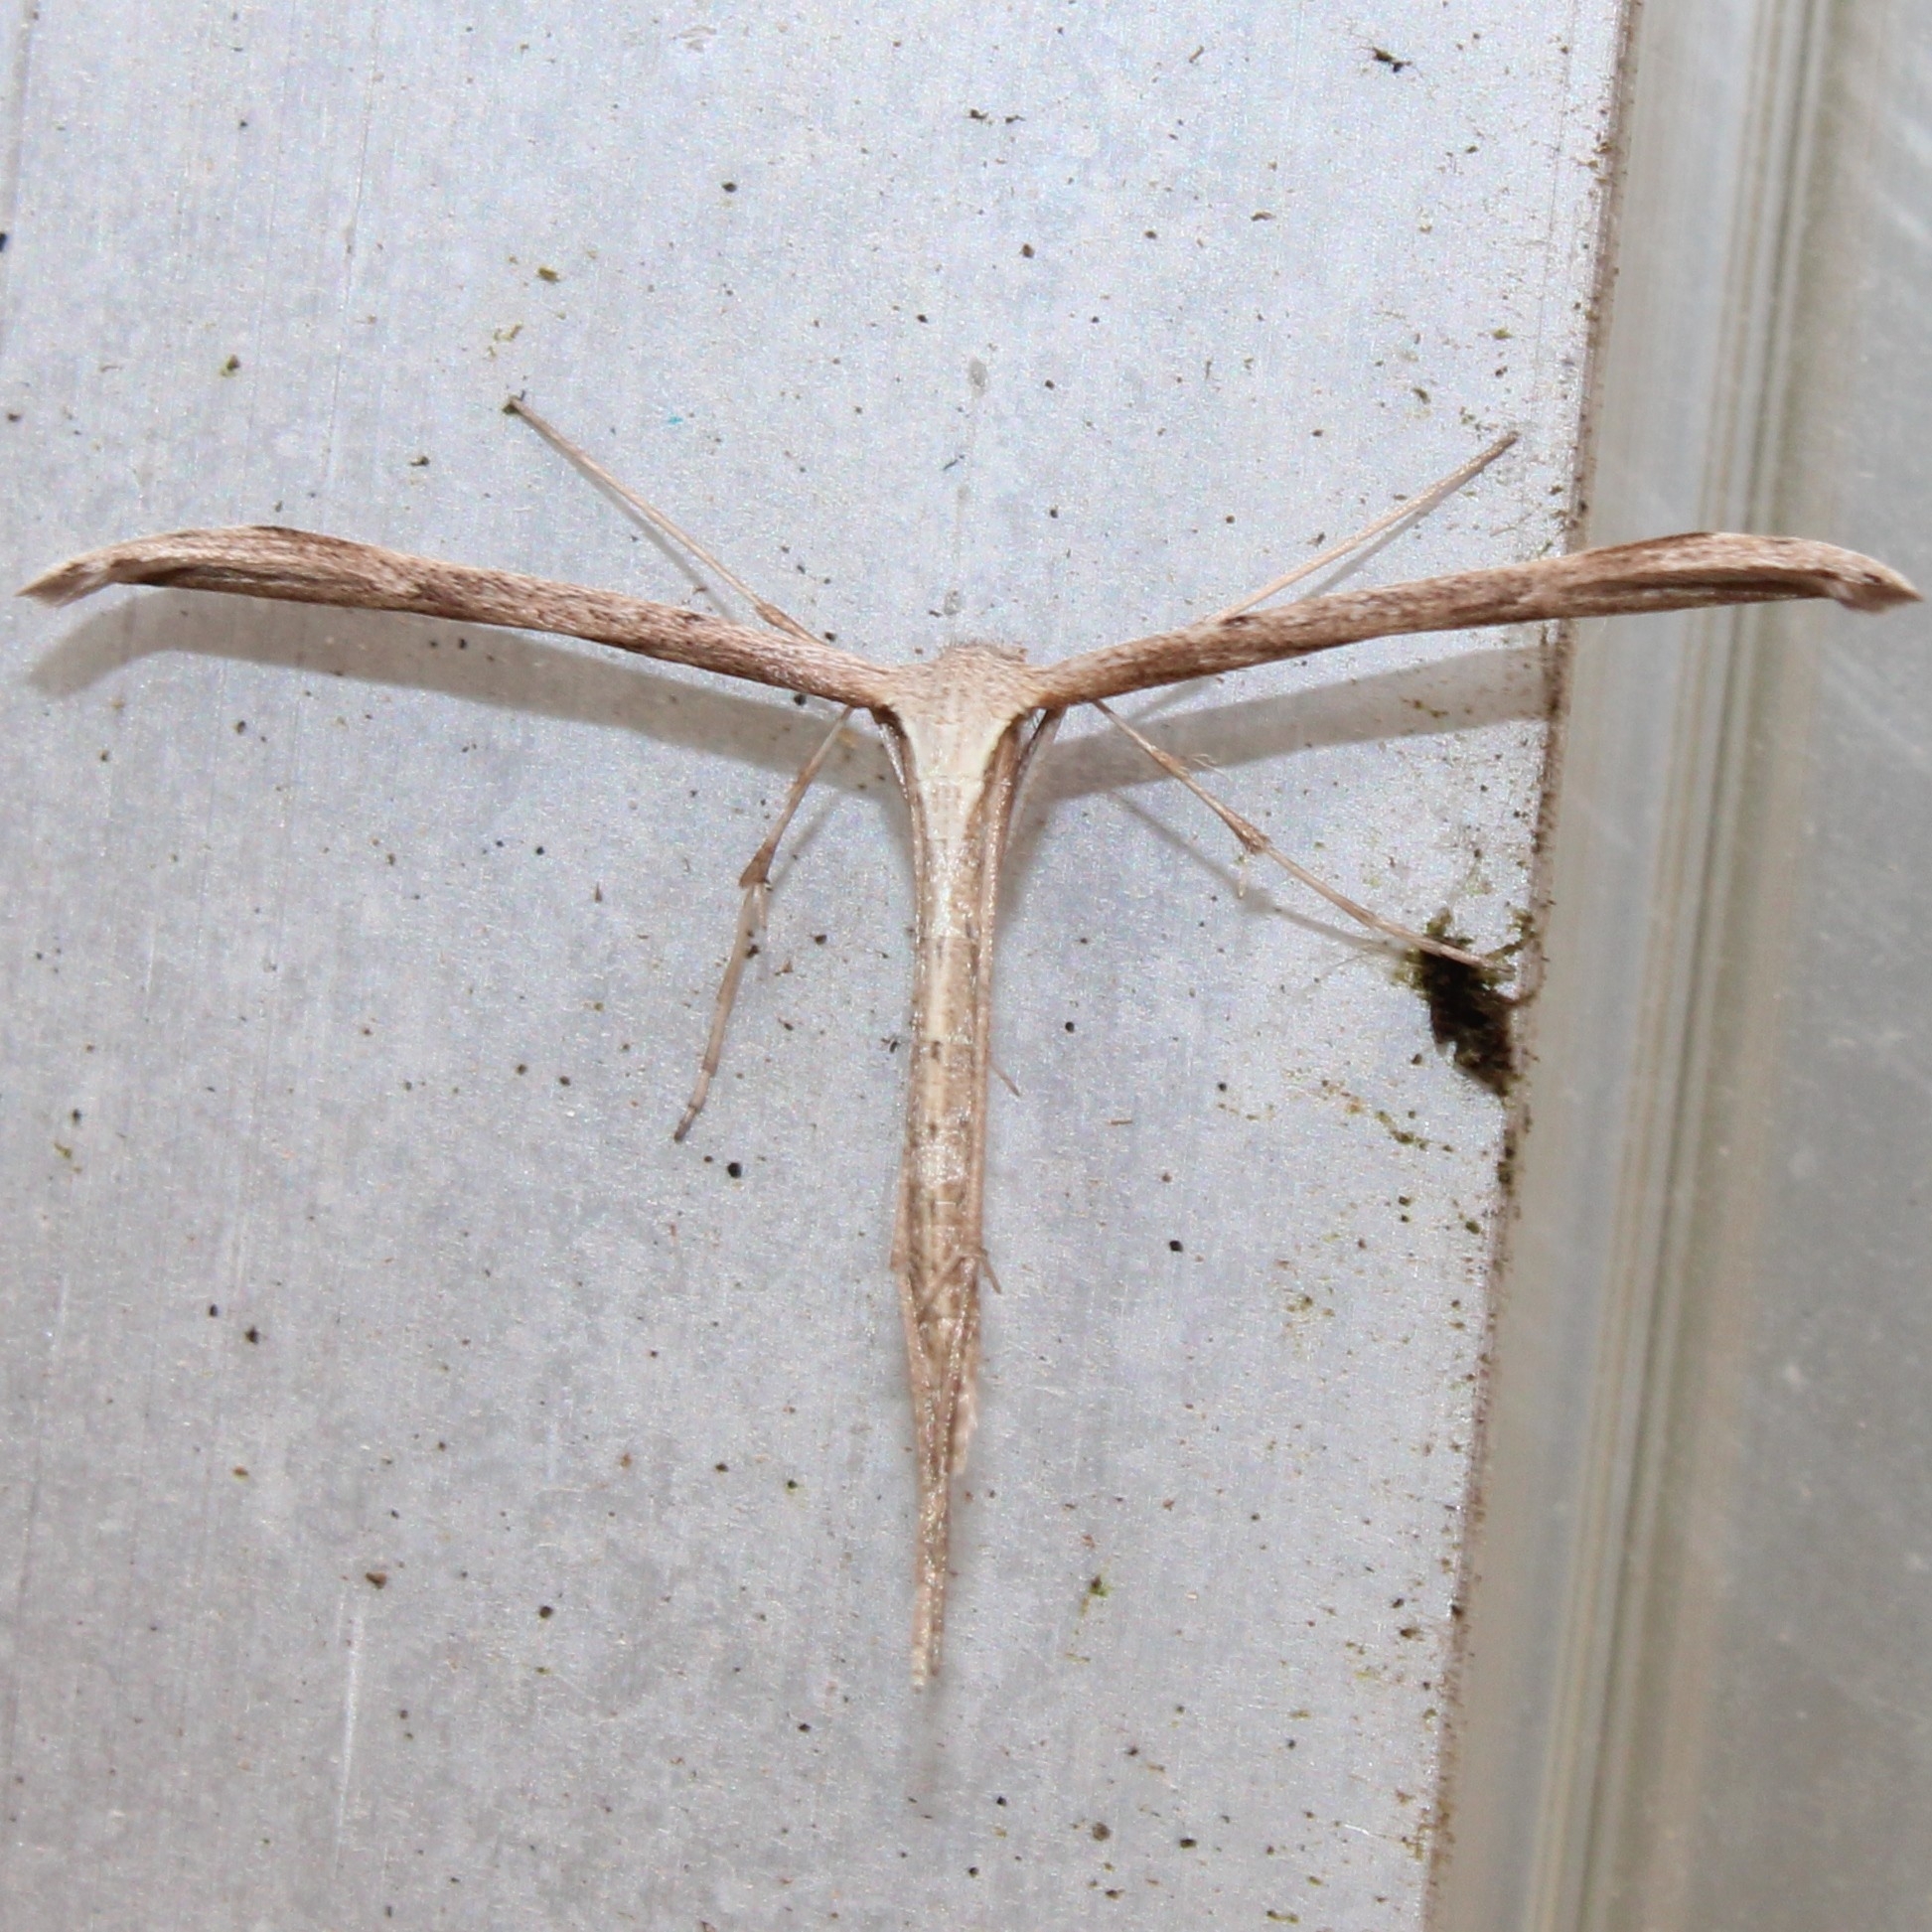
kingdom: Animalia
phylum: Arthropoda
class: Insecta
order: Lepidoptera
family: Pterophoridae
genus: Emmelina
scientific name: Emmelina monodactyla
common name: Common plume
